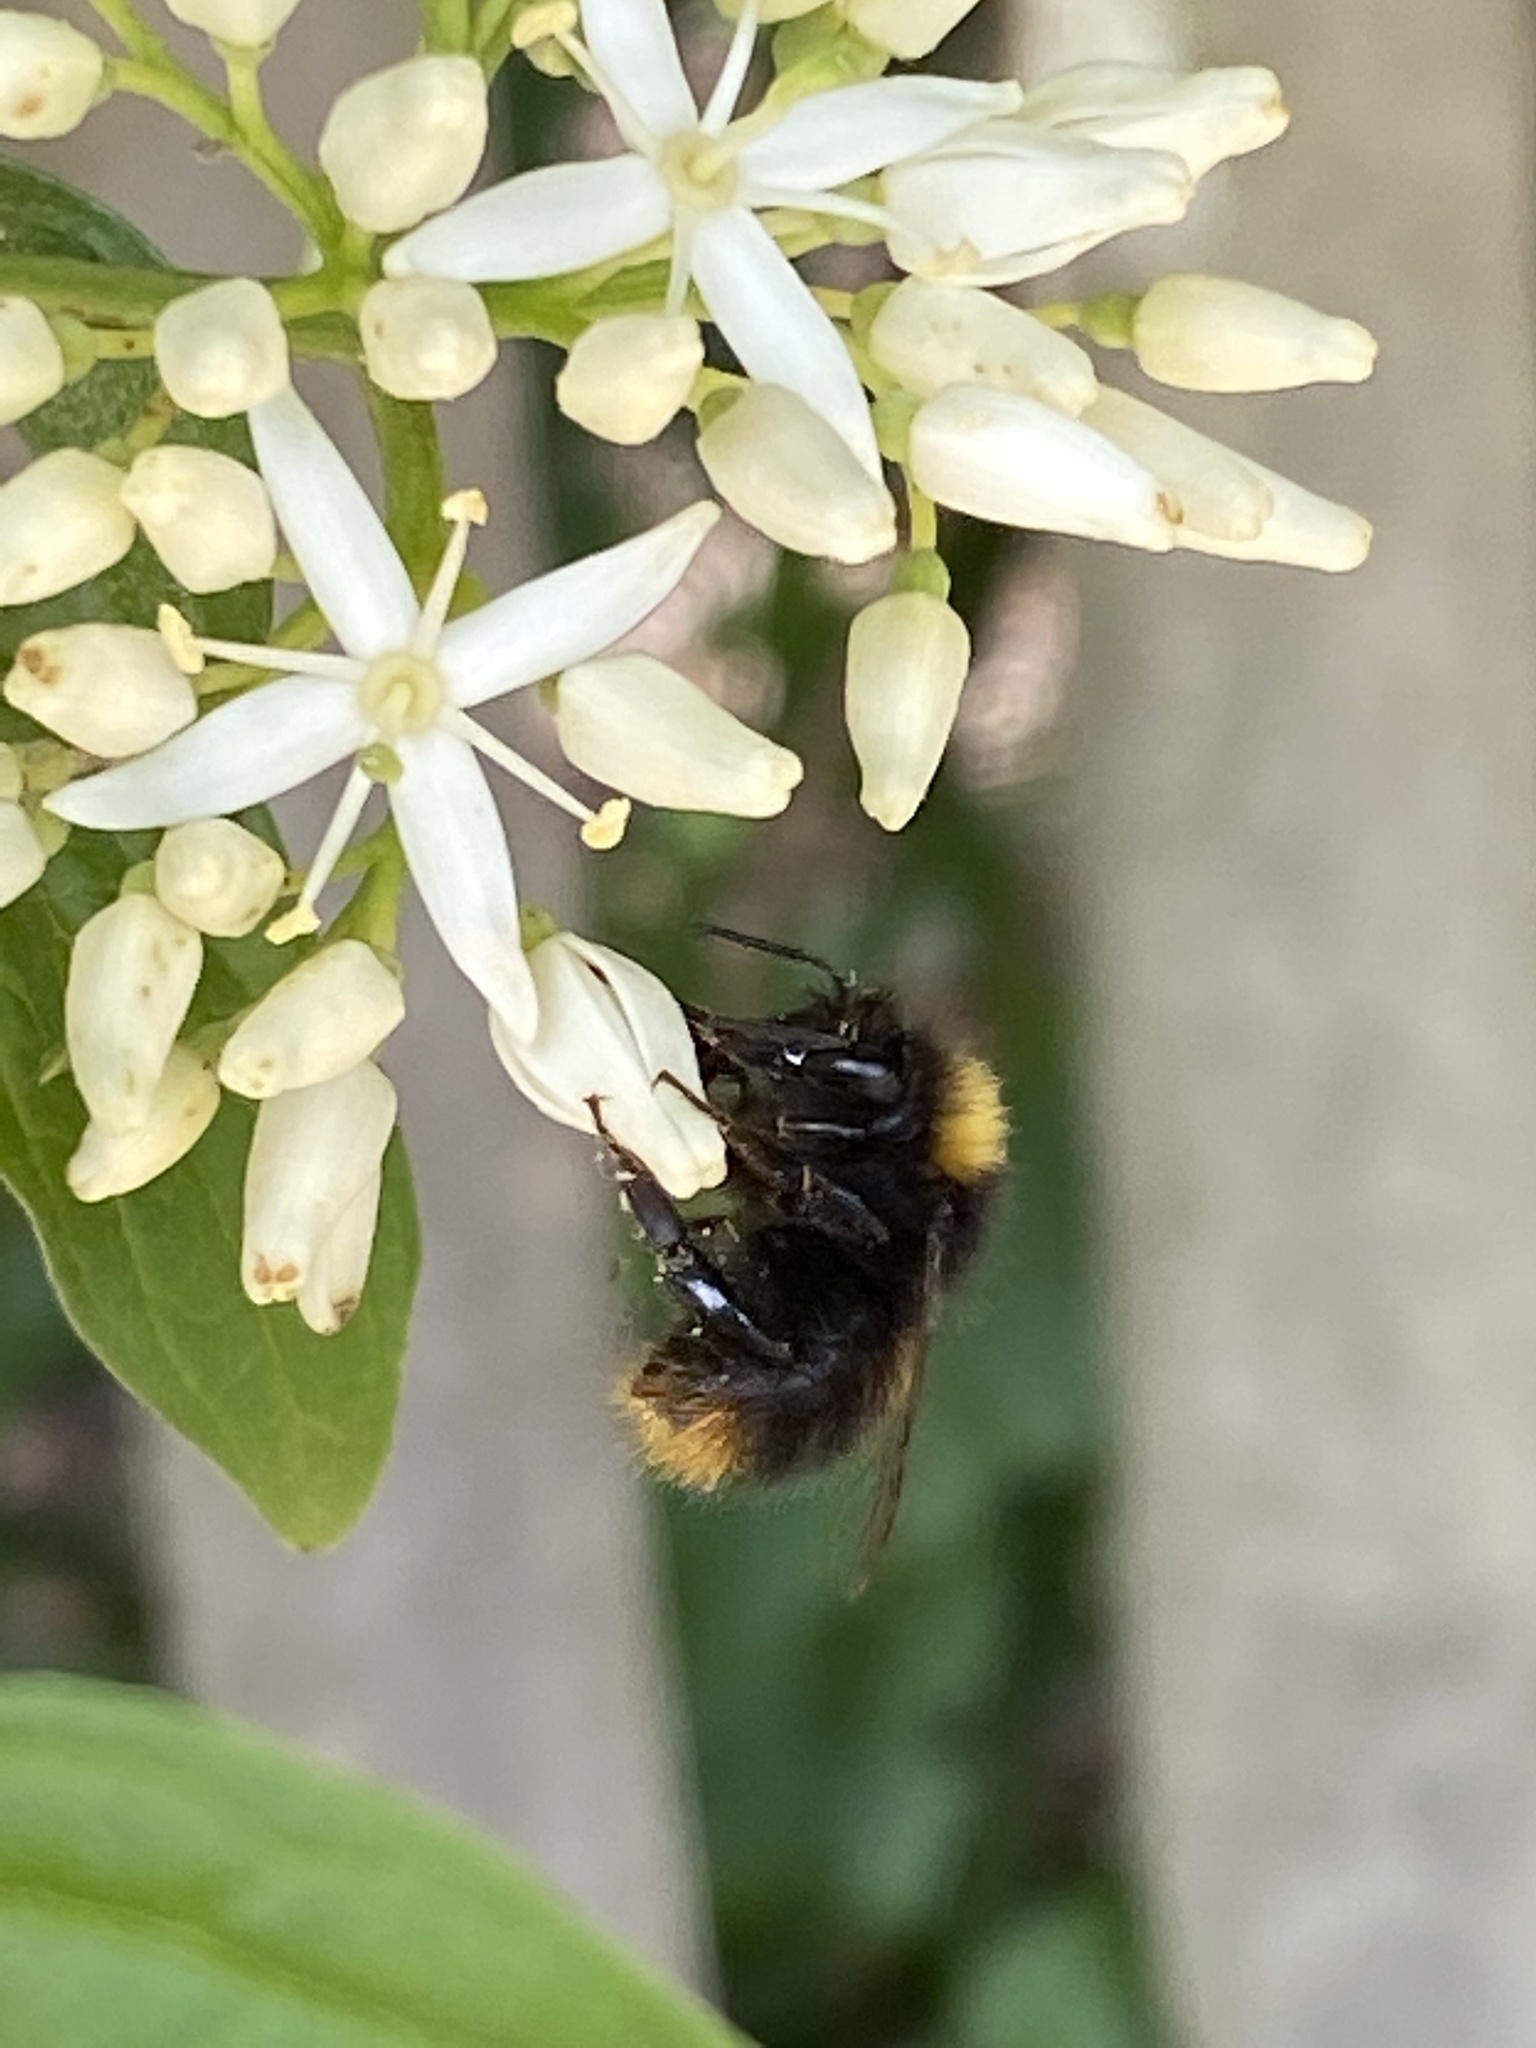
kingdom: Animalia
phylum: Arthropoda
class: Insecta
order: Hymenoptera
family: Apidae
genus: Bombus
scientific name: Bombus pratorum
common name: Early humble-bee
